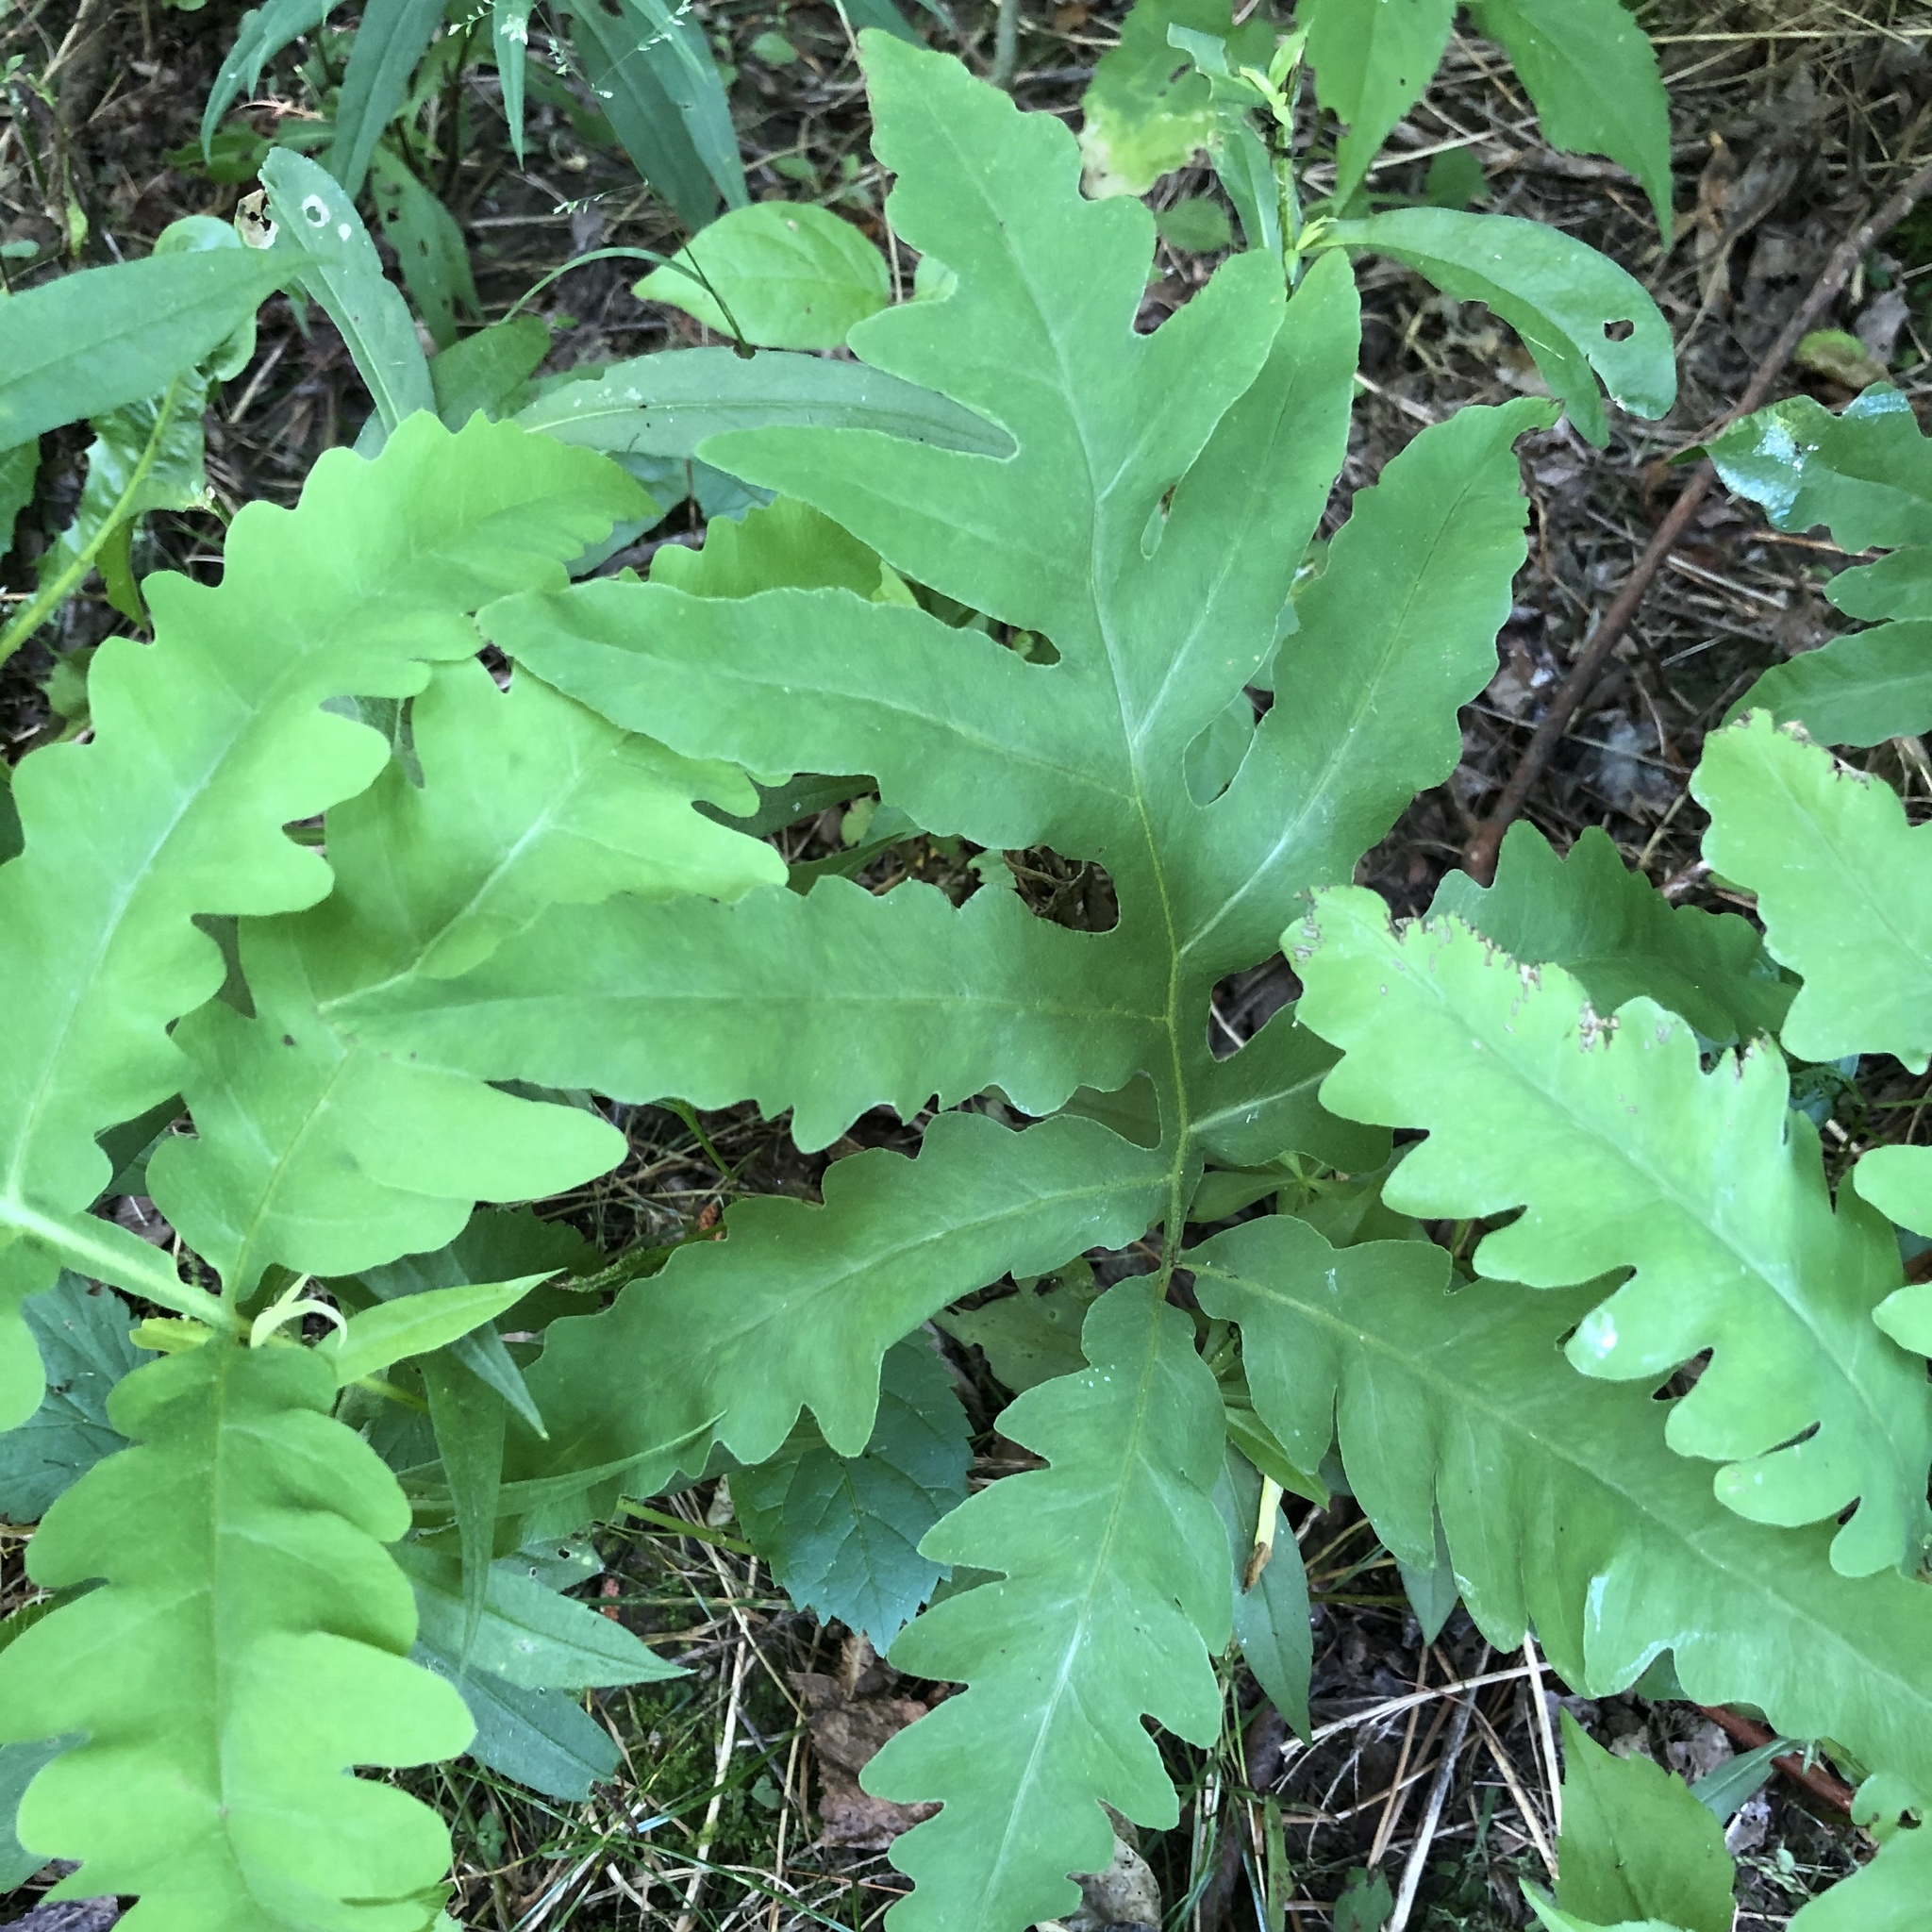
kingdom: Plantae
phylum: Tracheophyta
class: Polypodiopsida
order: Polypodiales
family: Onocleaceae
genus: Onoclea
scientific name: Onoclea sensibilis
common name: Sensitive fern
